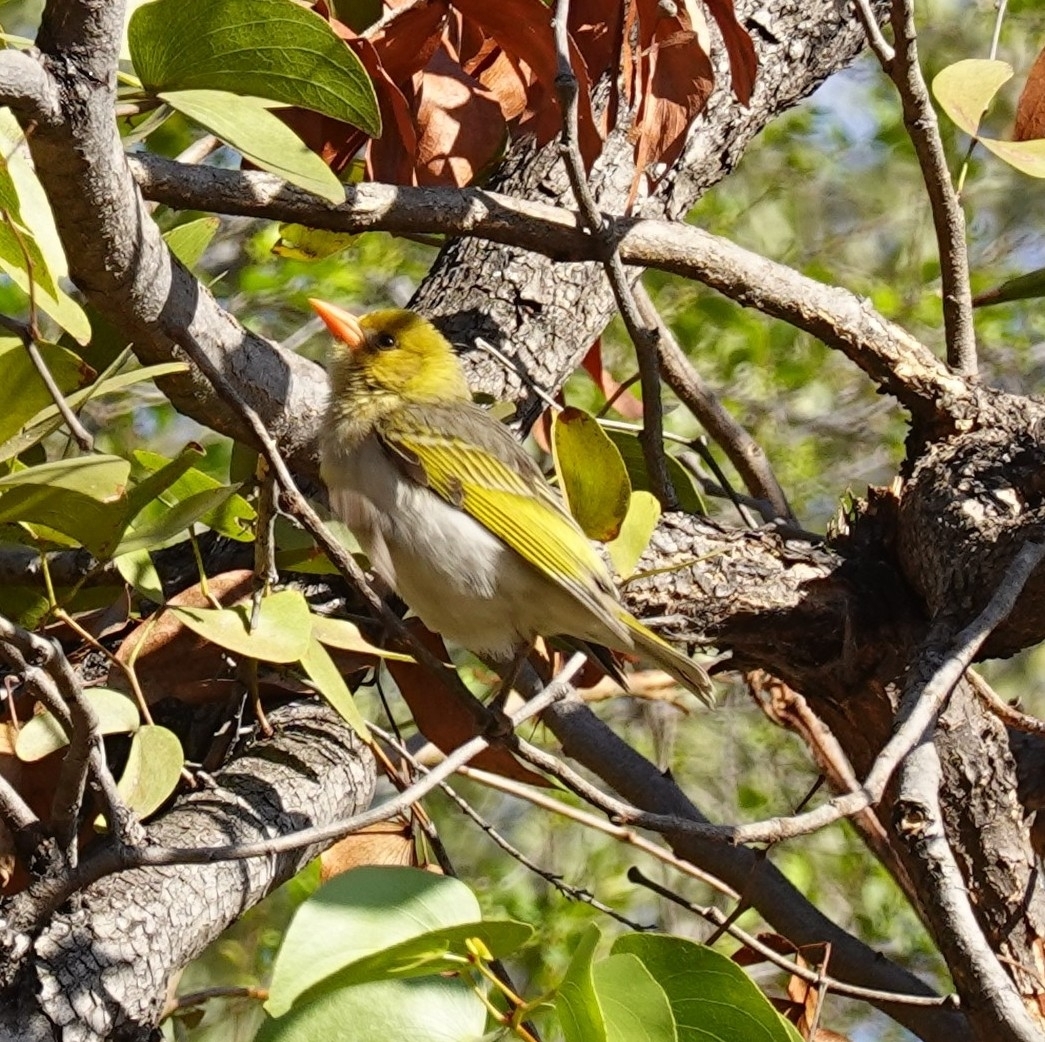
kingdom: Animalia
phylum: Chordata
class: Aves
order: Passeriformes
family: Ploceidae
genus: Anaplectes
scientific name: Anaplectes rubriceps
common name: Red-headed weaver
